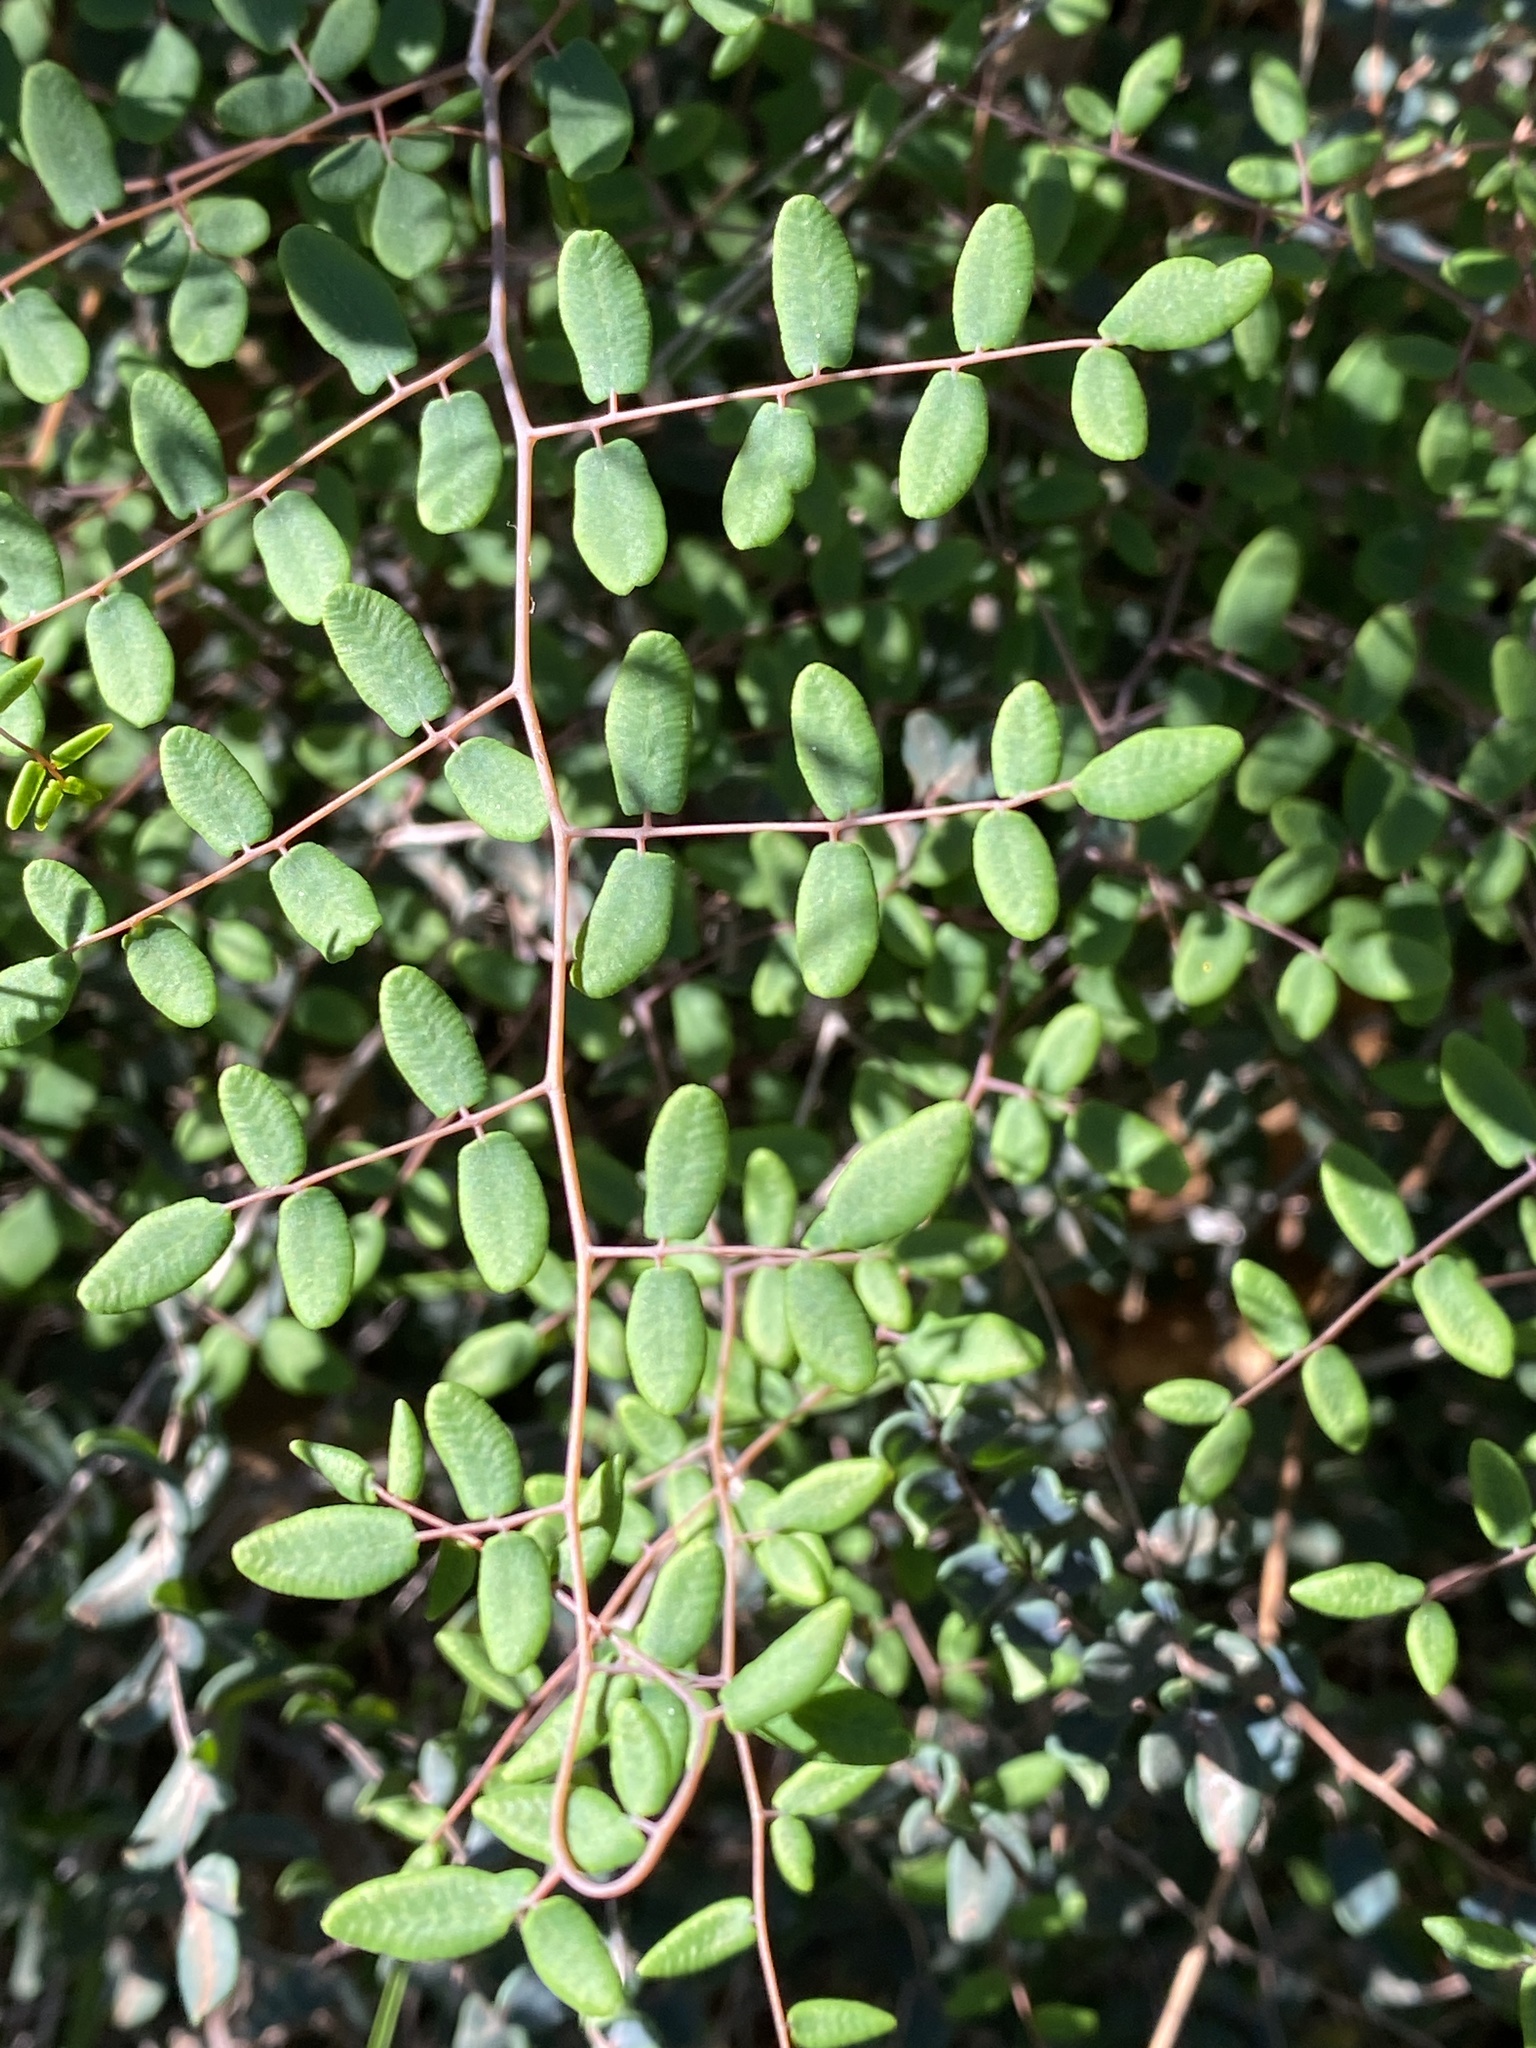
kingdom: Plantae
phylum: Tracheophyta
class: Polypodiopsida
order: Polypodiales
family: Pteridaceae
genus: Pellaea
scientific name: Pellaea andromedifolia
